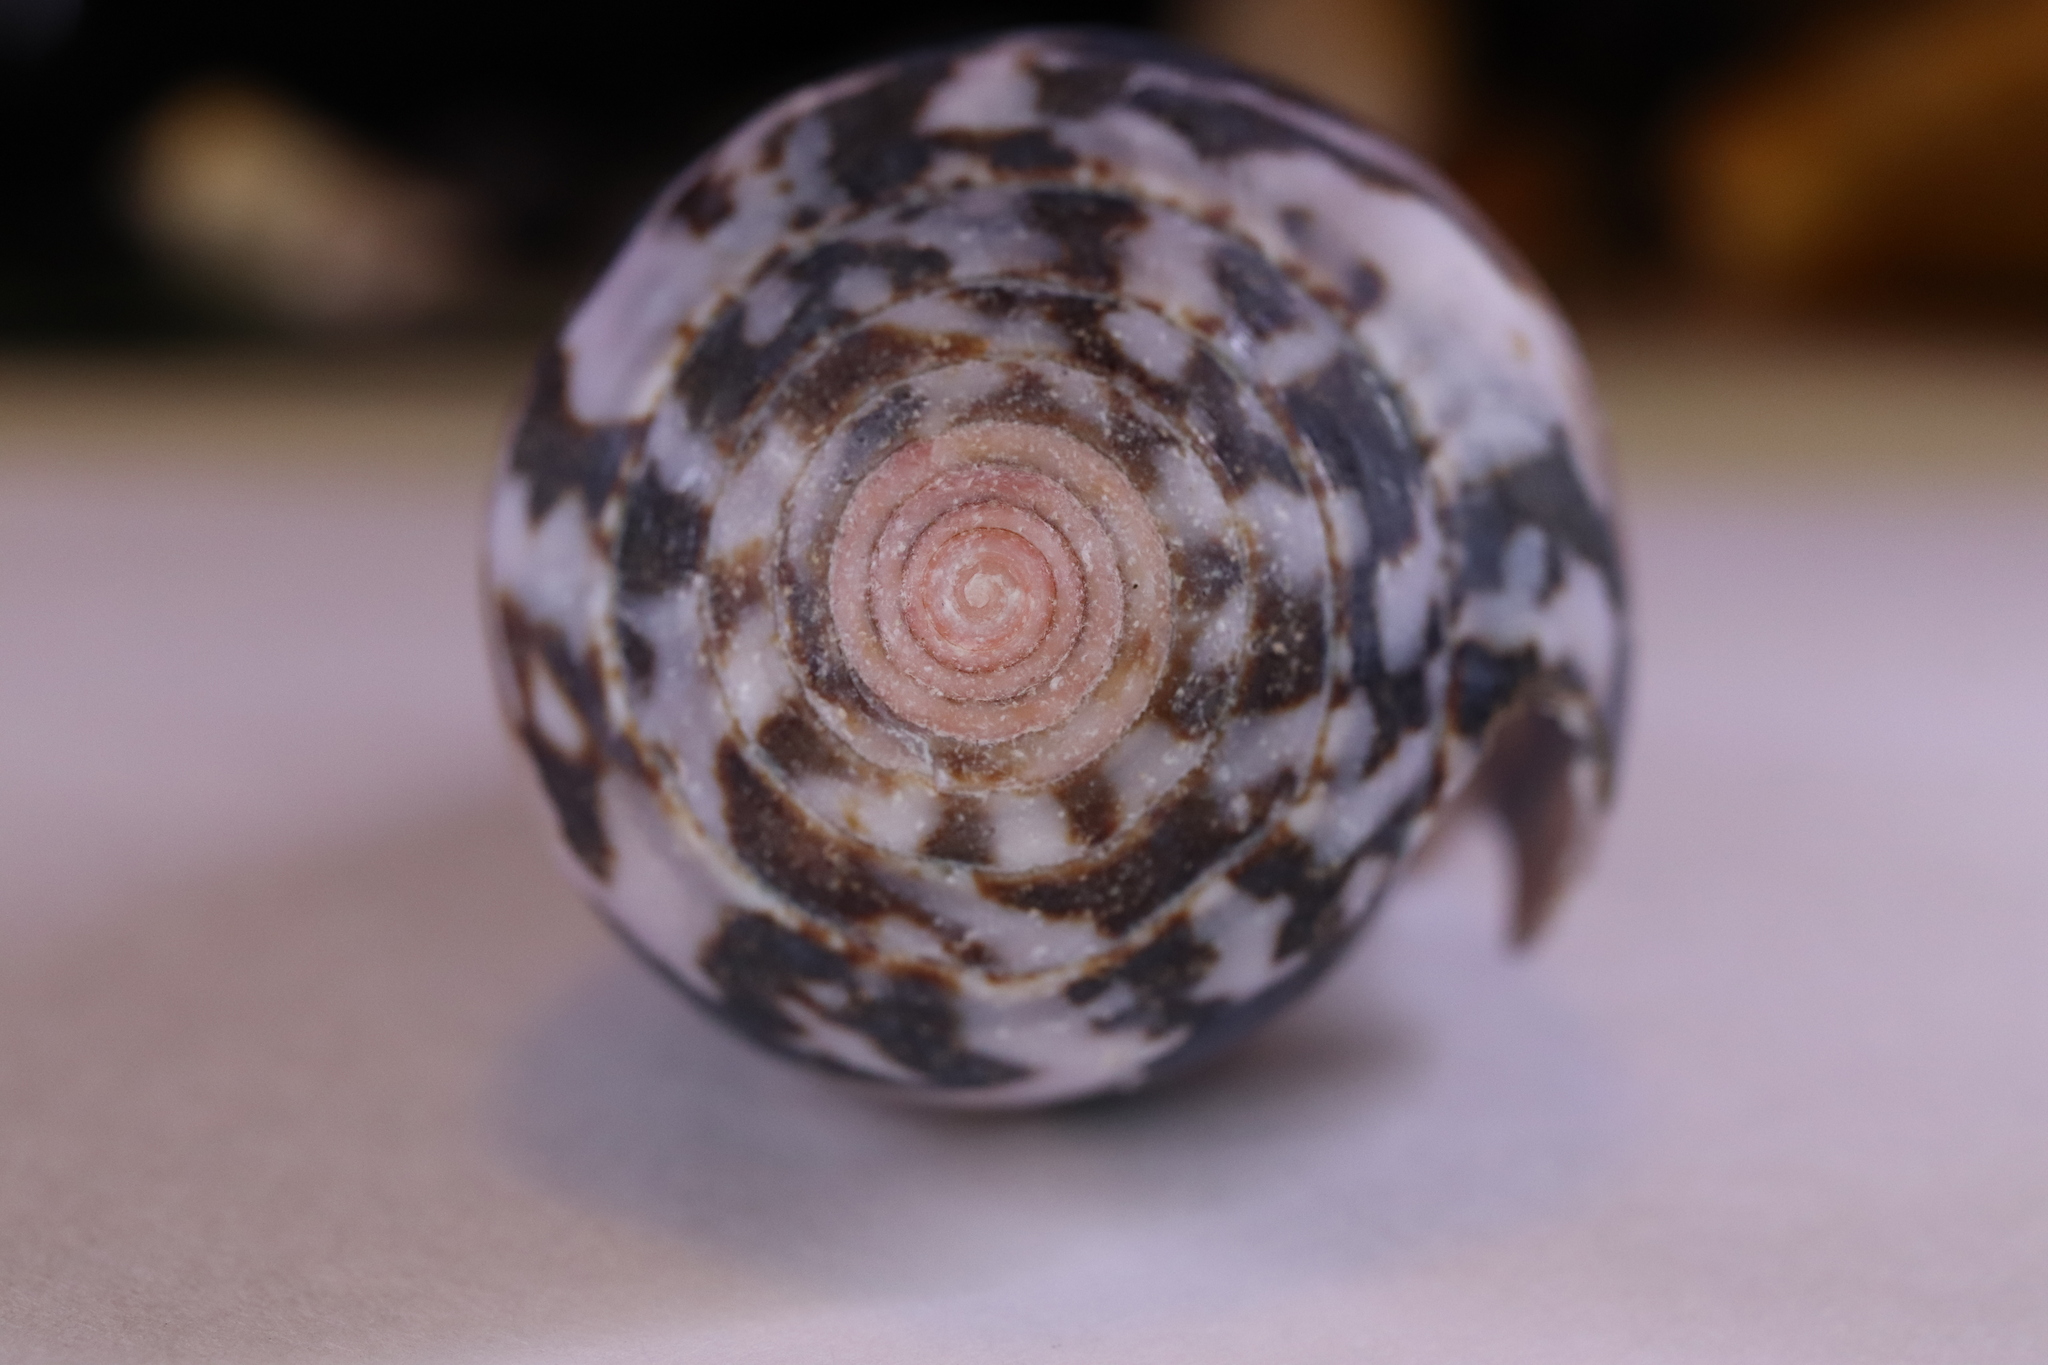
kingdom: Animalia
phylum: Mollusca
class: Gastropoda
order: Neogastropoda
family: Conidae
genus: Conus
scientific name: Conus fulmen
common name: Fulmen's cone
